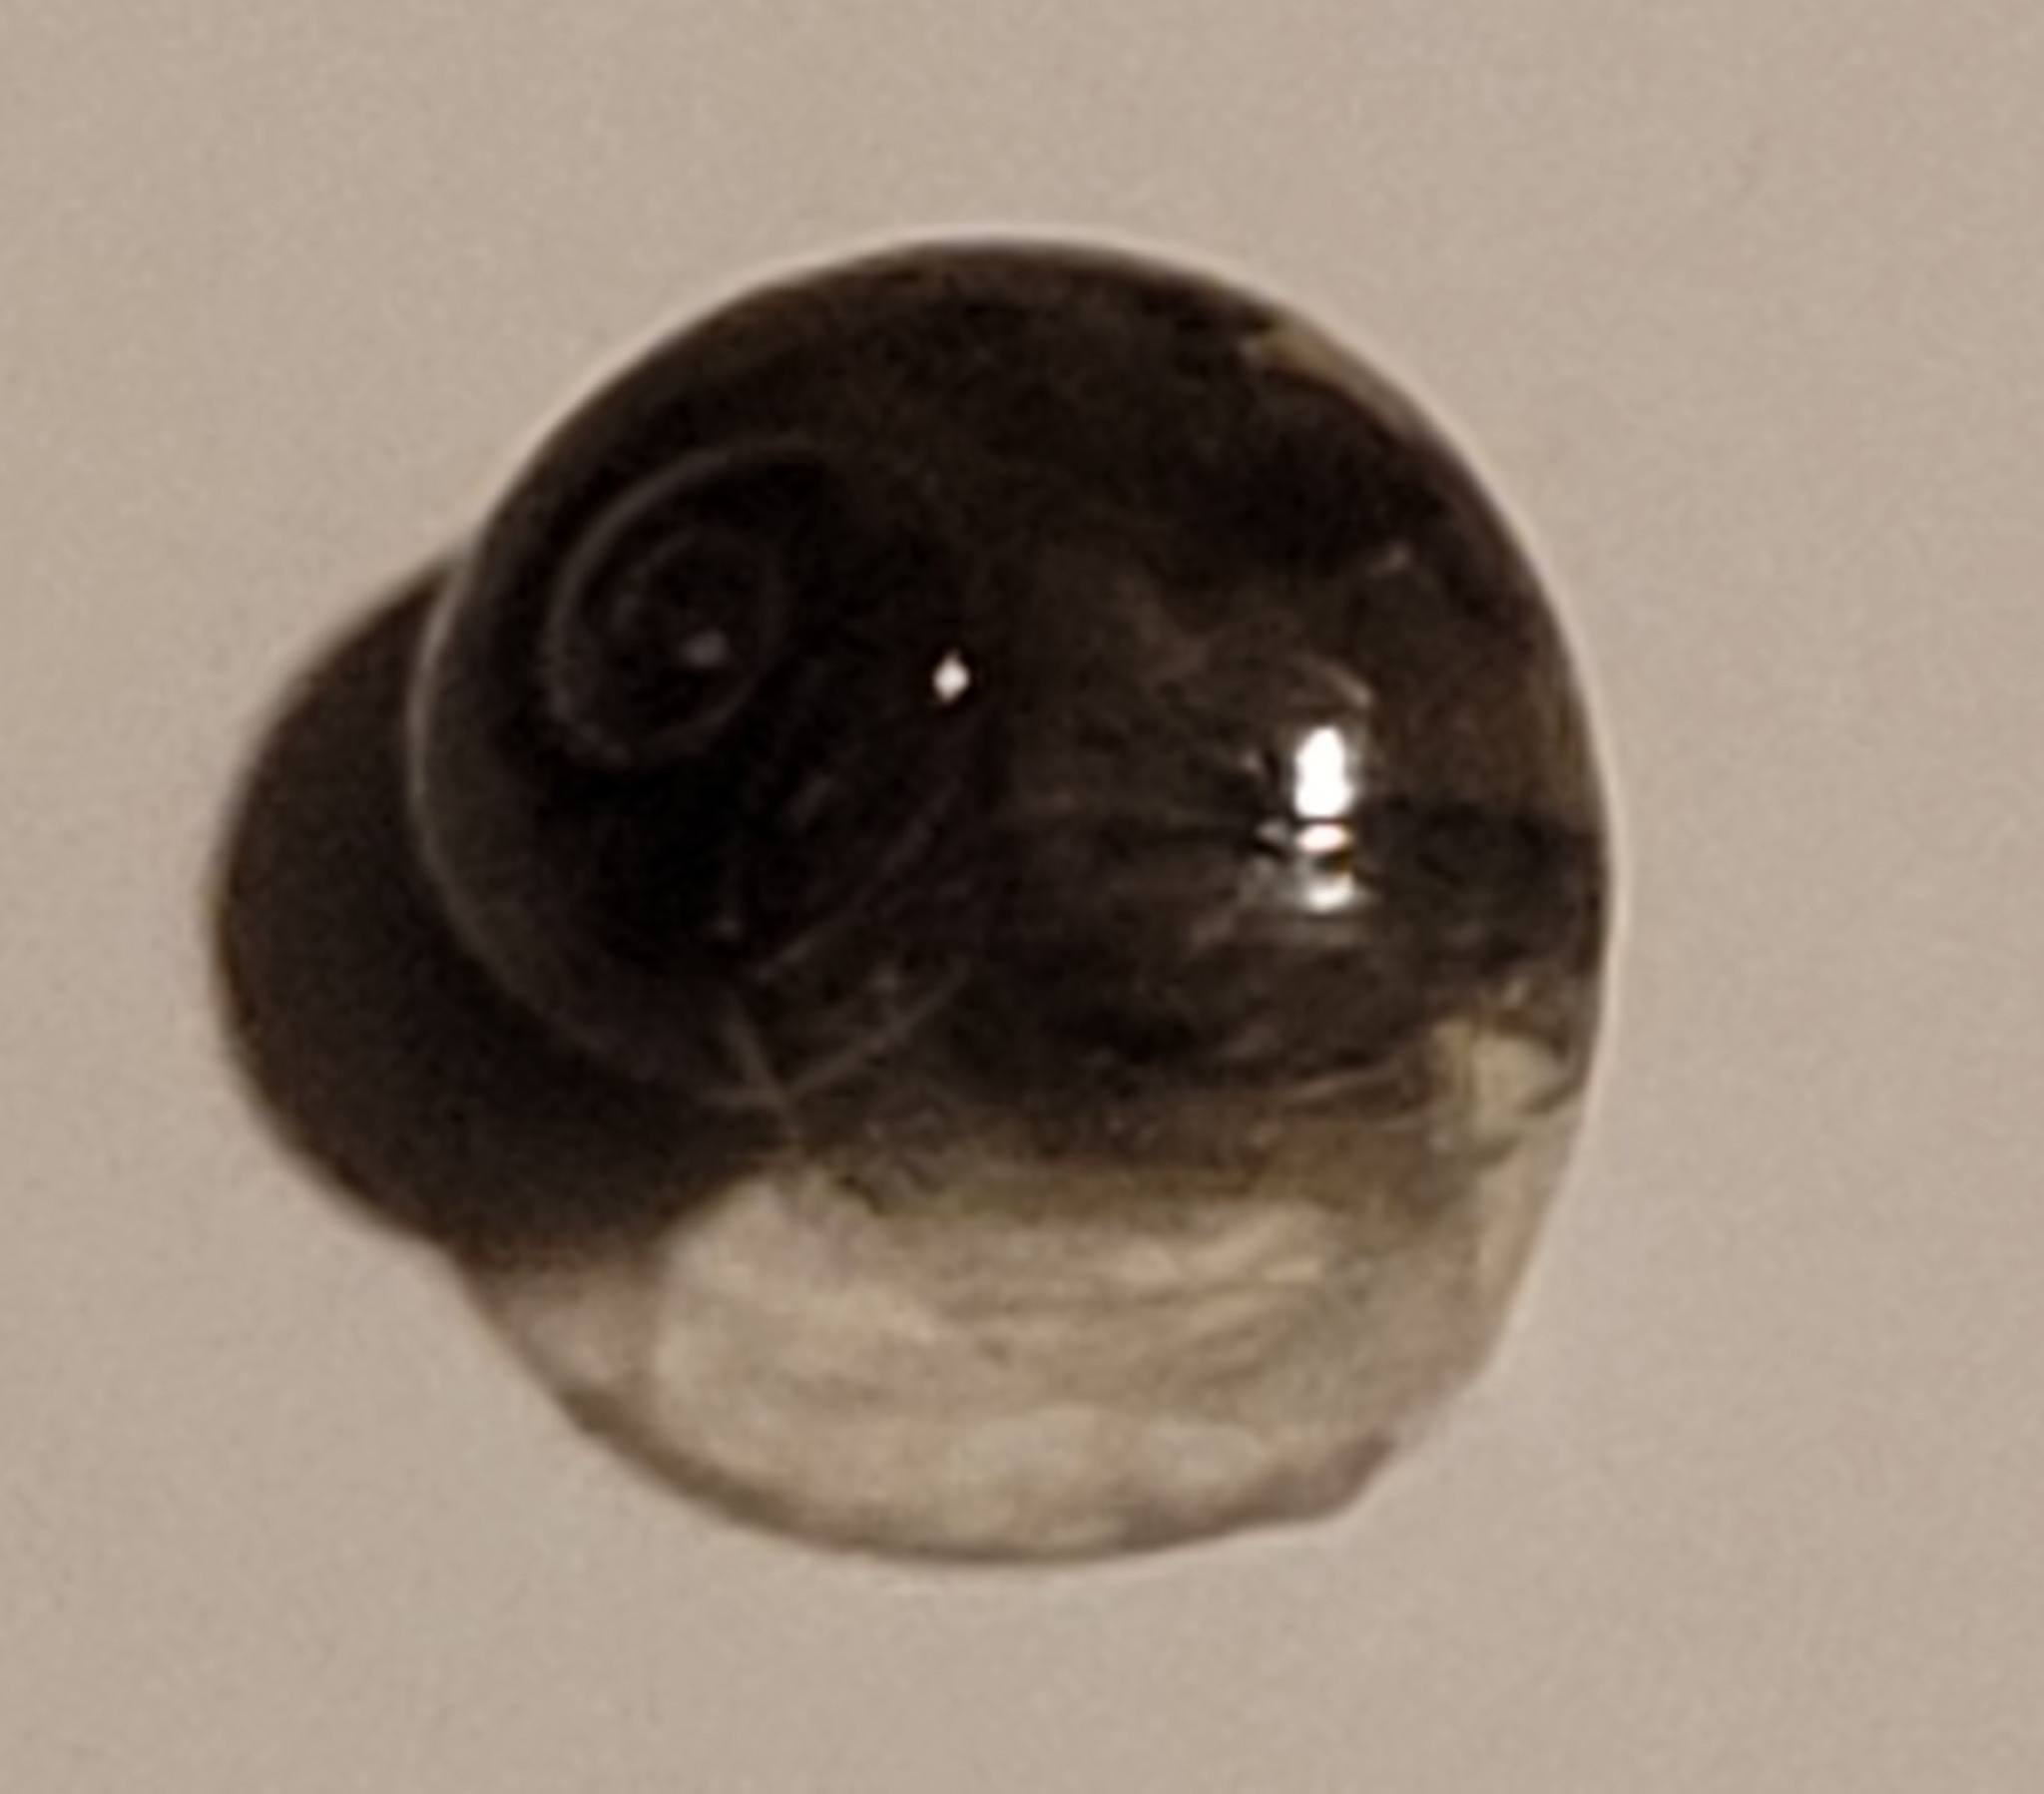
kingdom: Animalia
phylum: Mollusca
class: Gastropoda
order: Stylommatophora
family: Vitrinidae
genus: Vitrina
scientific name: Vitrina pellucida
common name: Pellucid glass snail
